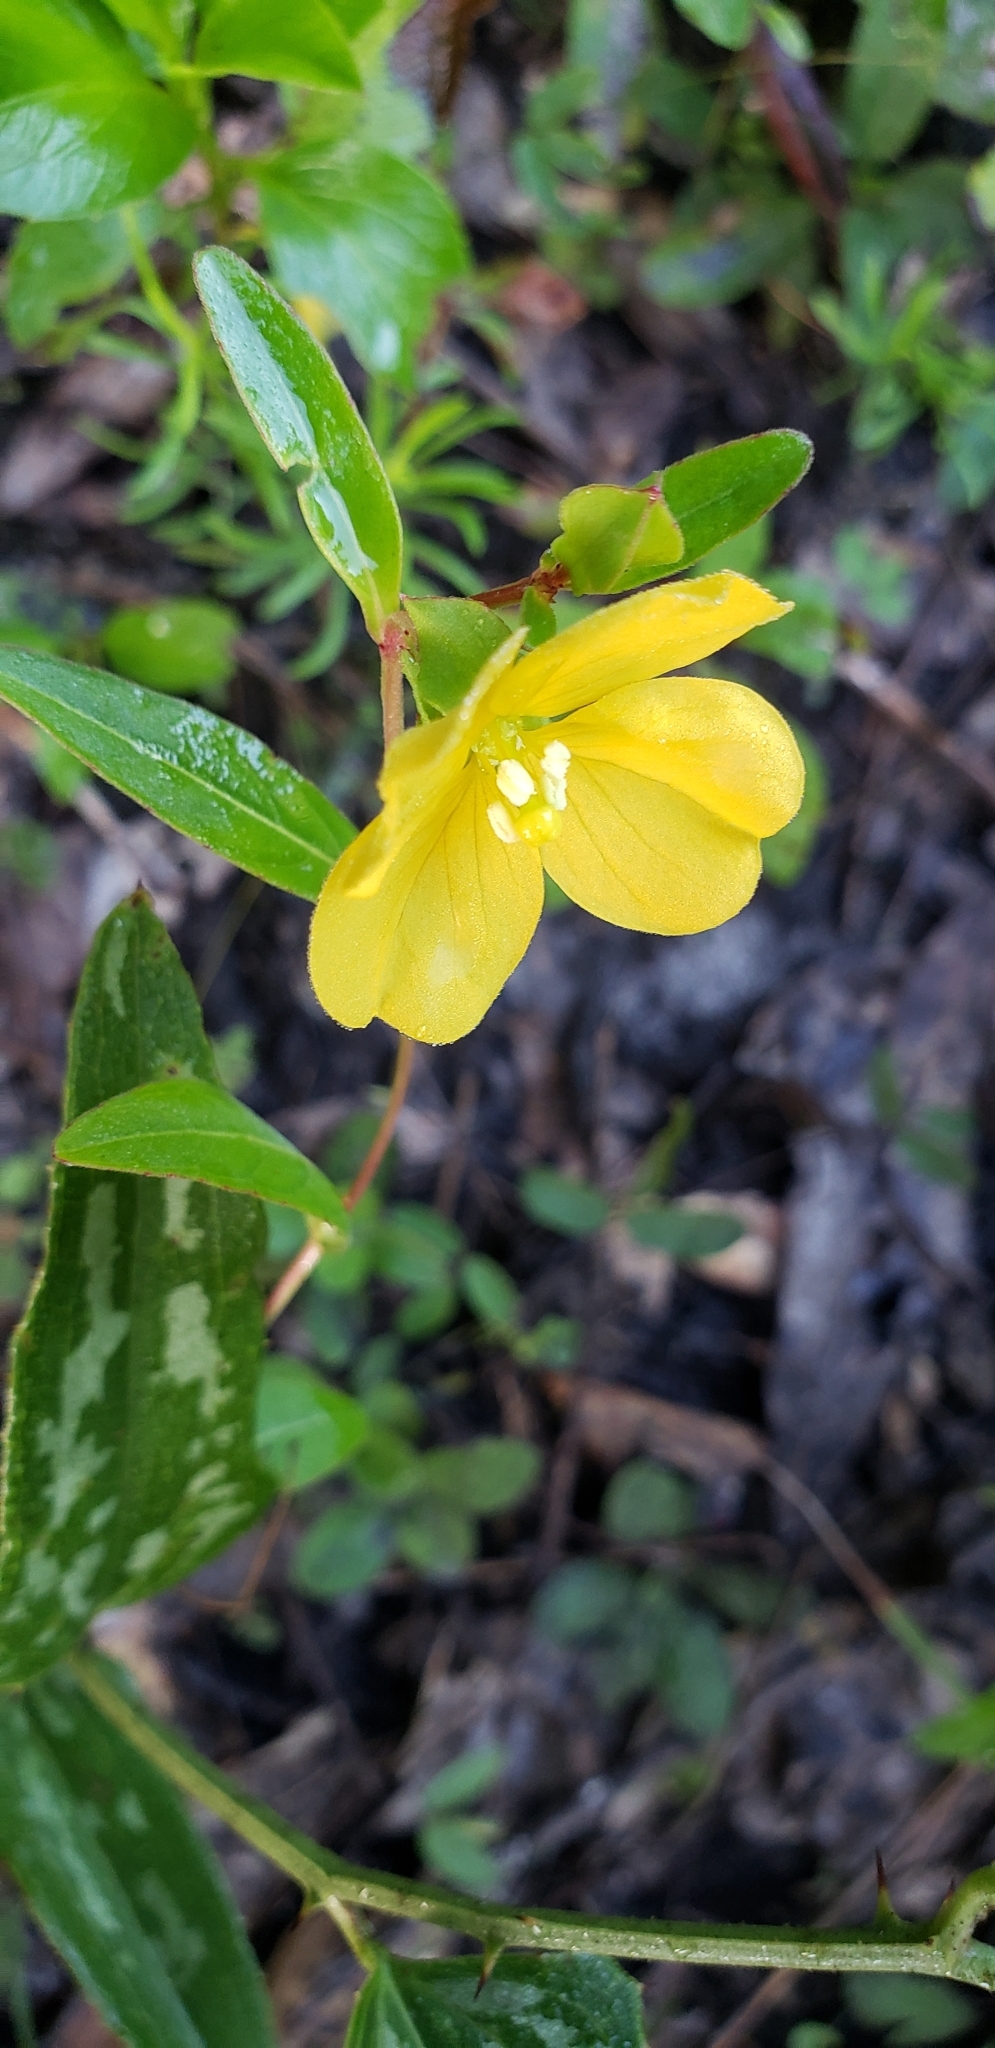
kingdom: Plantae
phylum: Tracheophyta
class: Magnoliopsida
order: Myrtales
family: Onagraceae
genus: Ludwigia
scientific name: Ludwigia maritima
